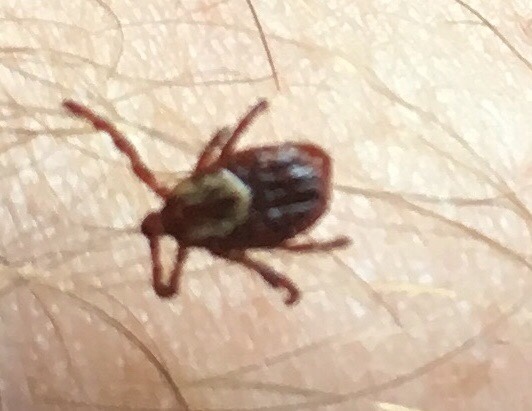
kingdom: Animalia
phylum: Arthropoda
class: Arachnida
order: Ixodida
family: Ixodidae
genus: Dermacentor
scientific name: Dermacentor variabilis
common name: American dog tick
